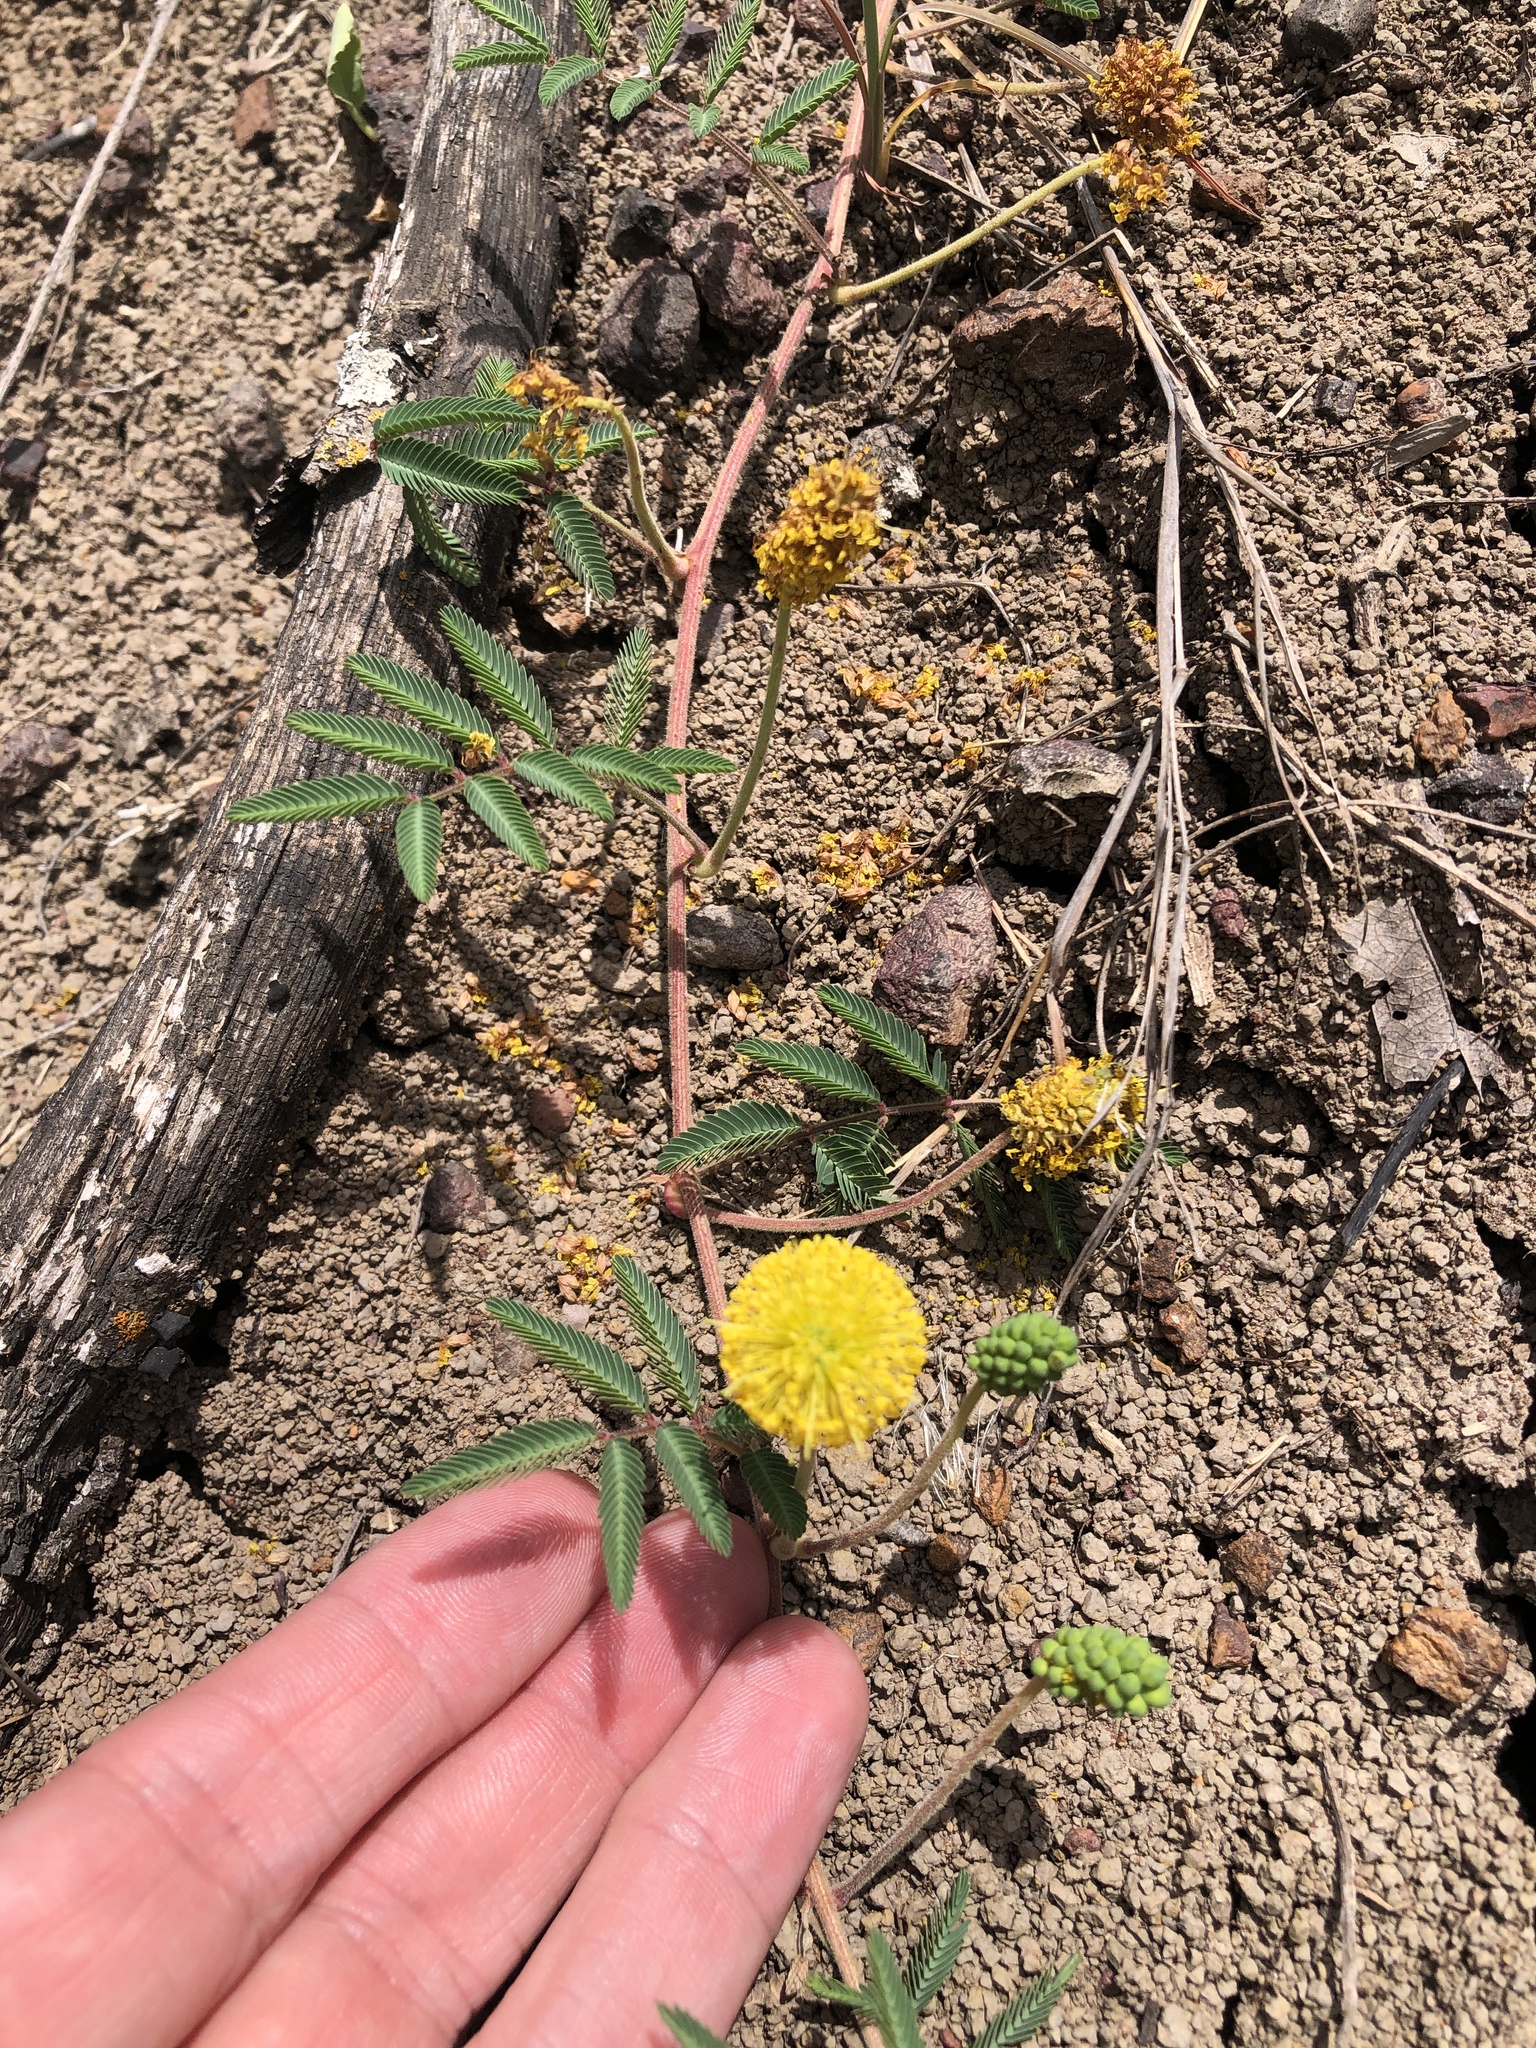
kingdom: Plantae
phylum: Tracheophyta
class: Magnoliopsida
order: Fabales
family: Fabaceae
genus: Neptunia
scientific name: Neptunia lutea
